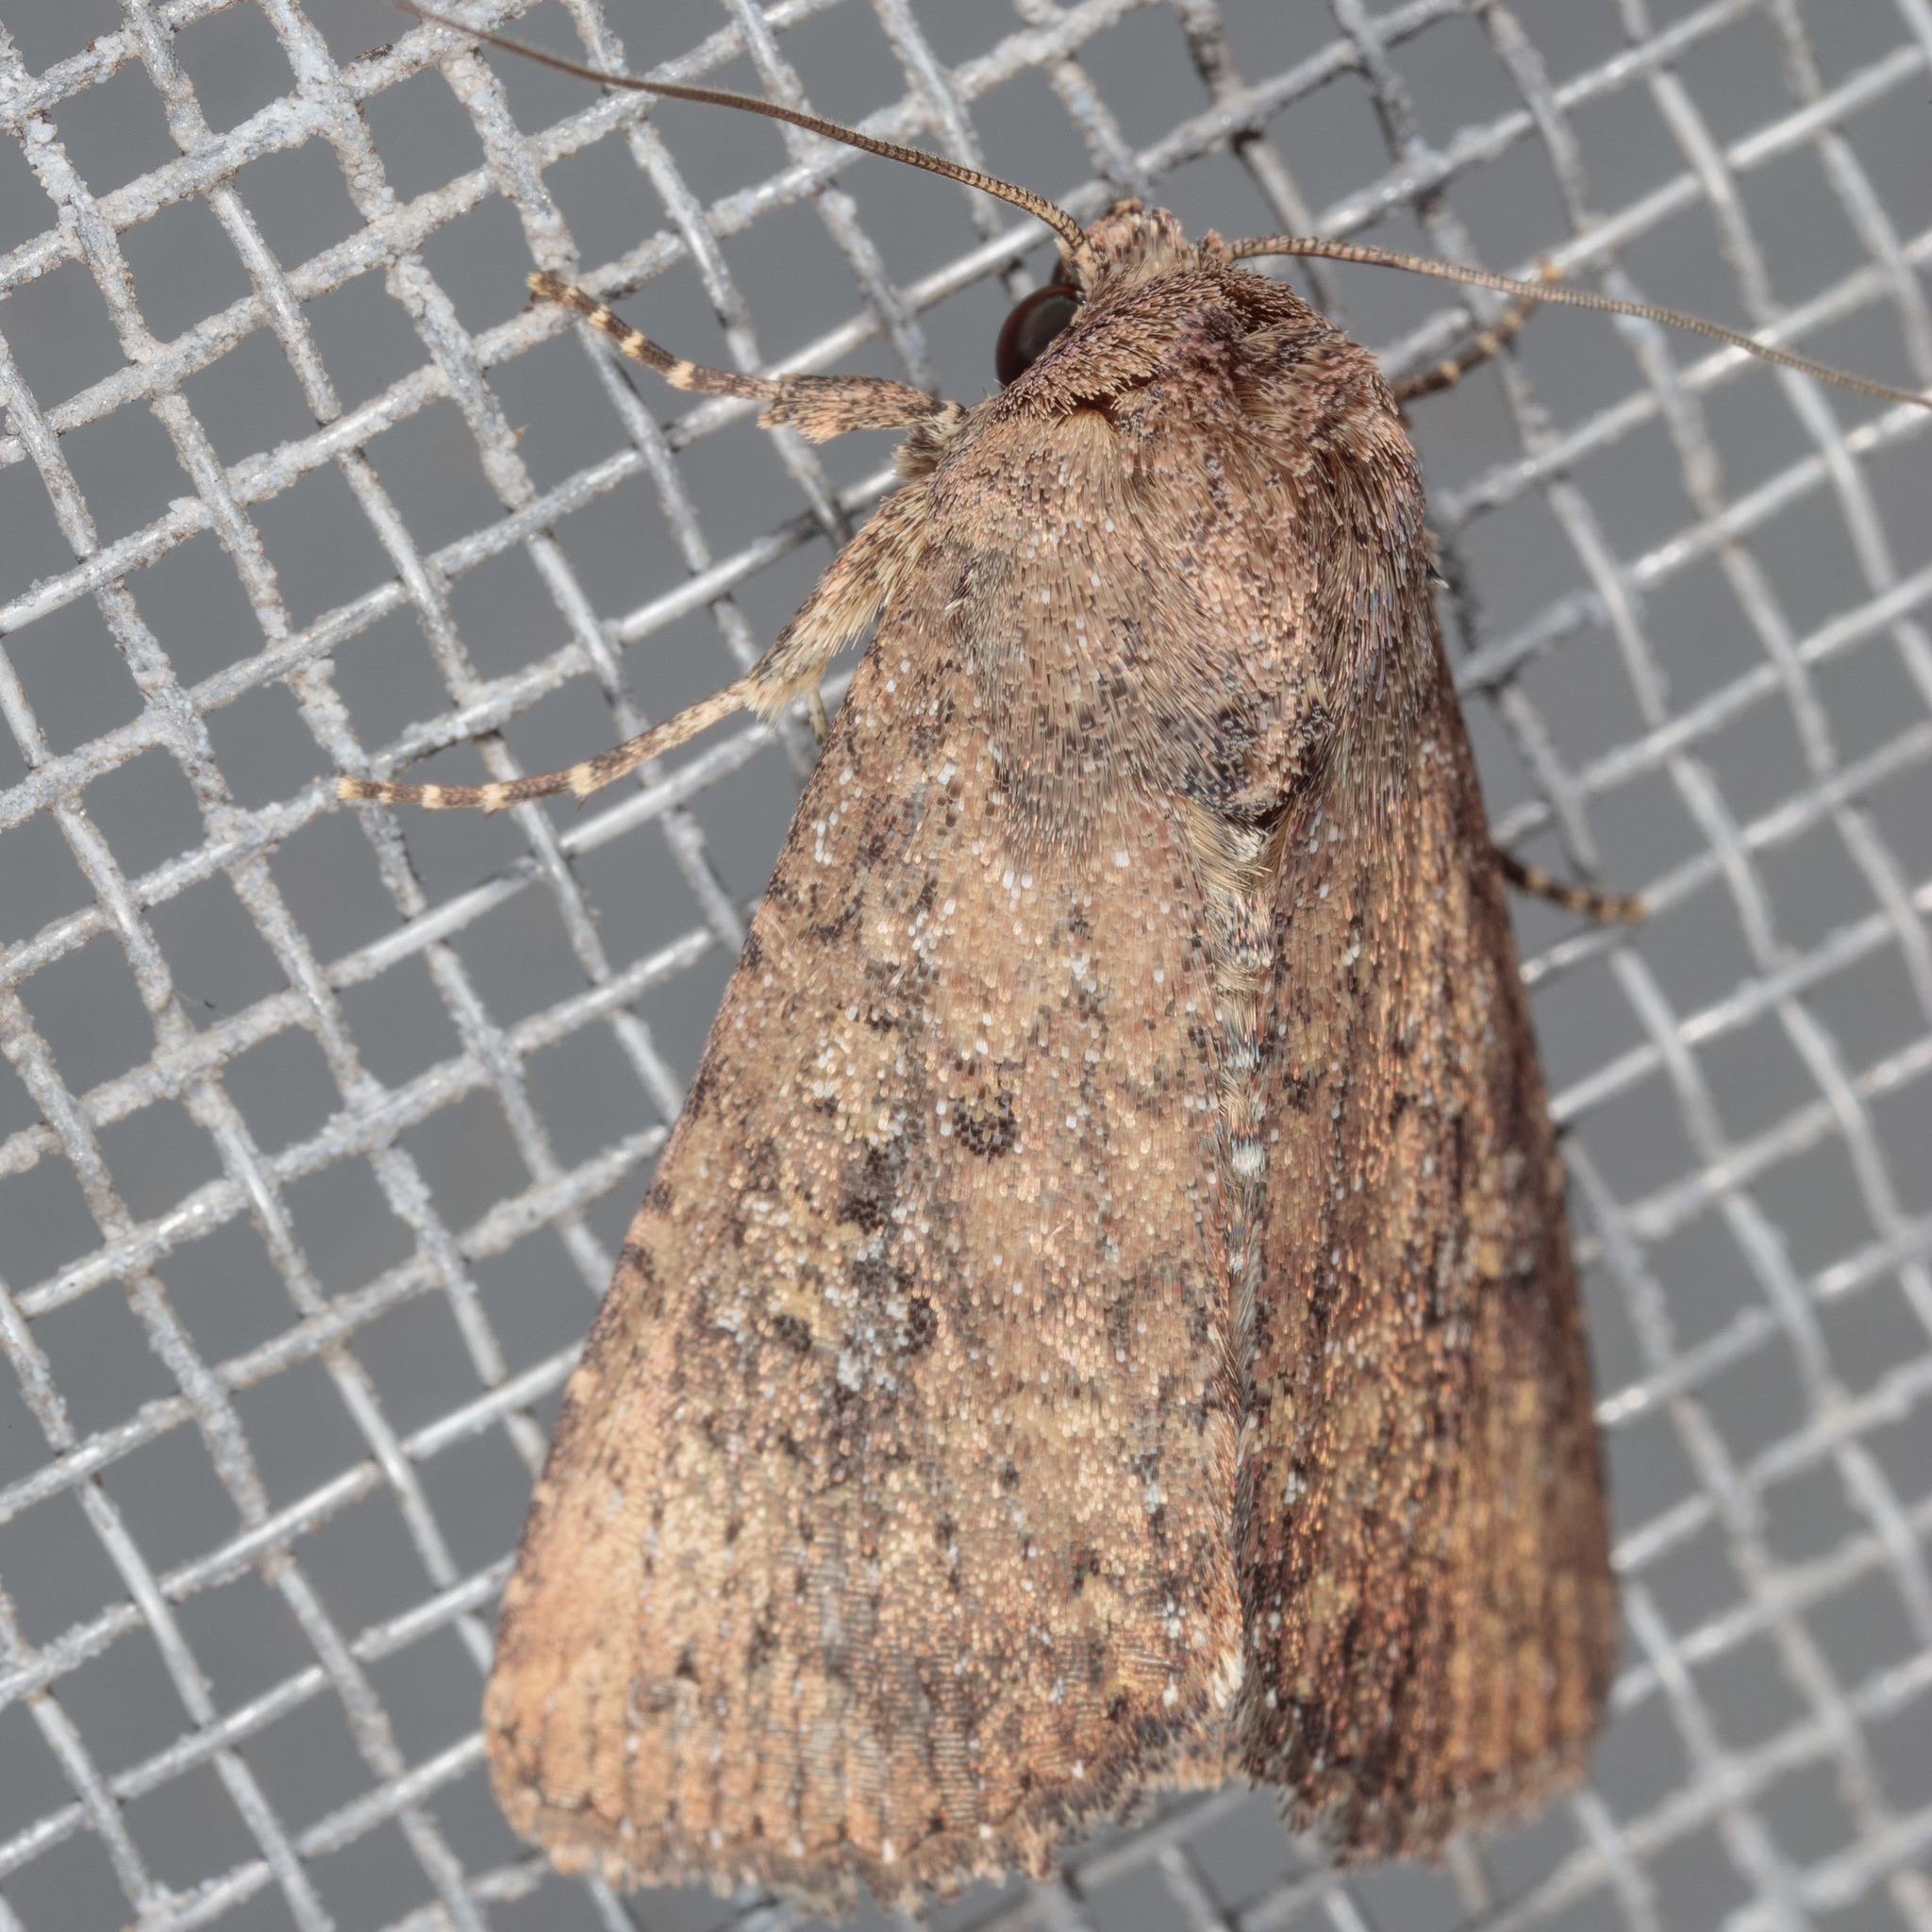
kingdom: Animalia
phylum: Arthropoda
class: Insecta
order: Lepidoptera
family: Noctuidae
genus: Condica
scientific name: Condica sutor
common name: Cobbler moth
